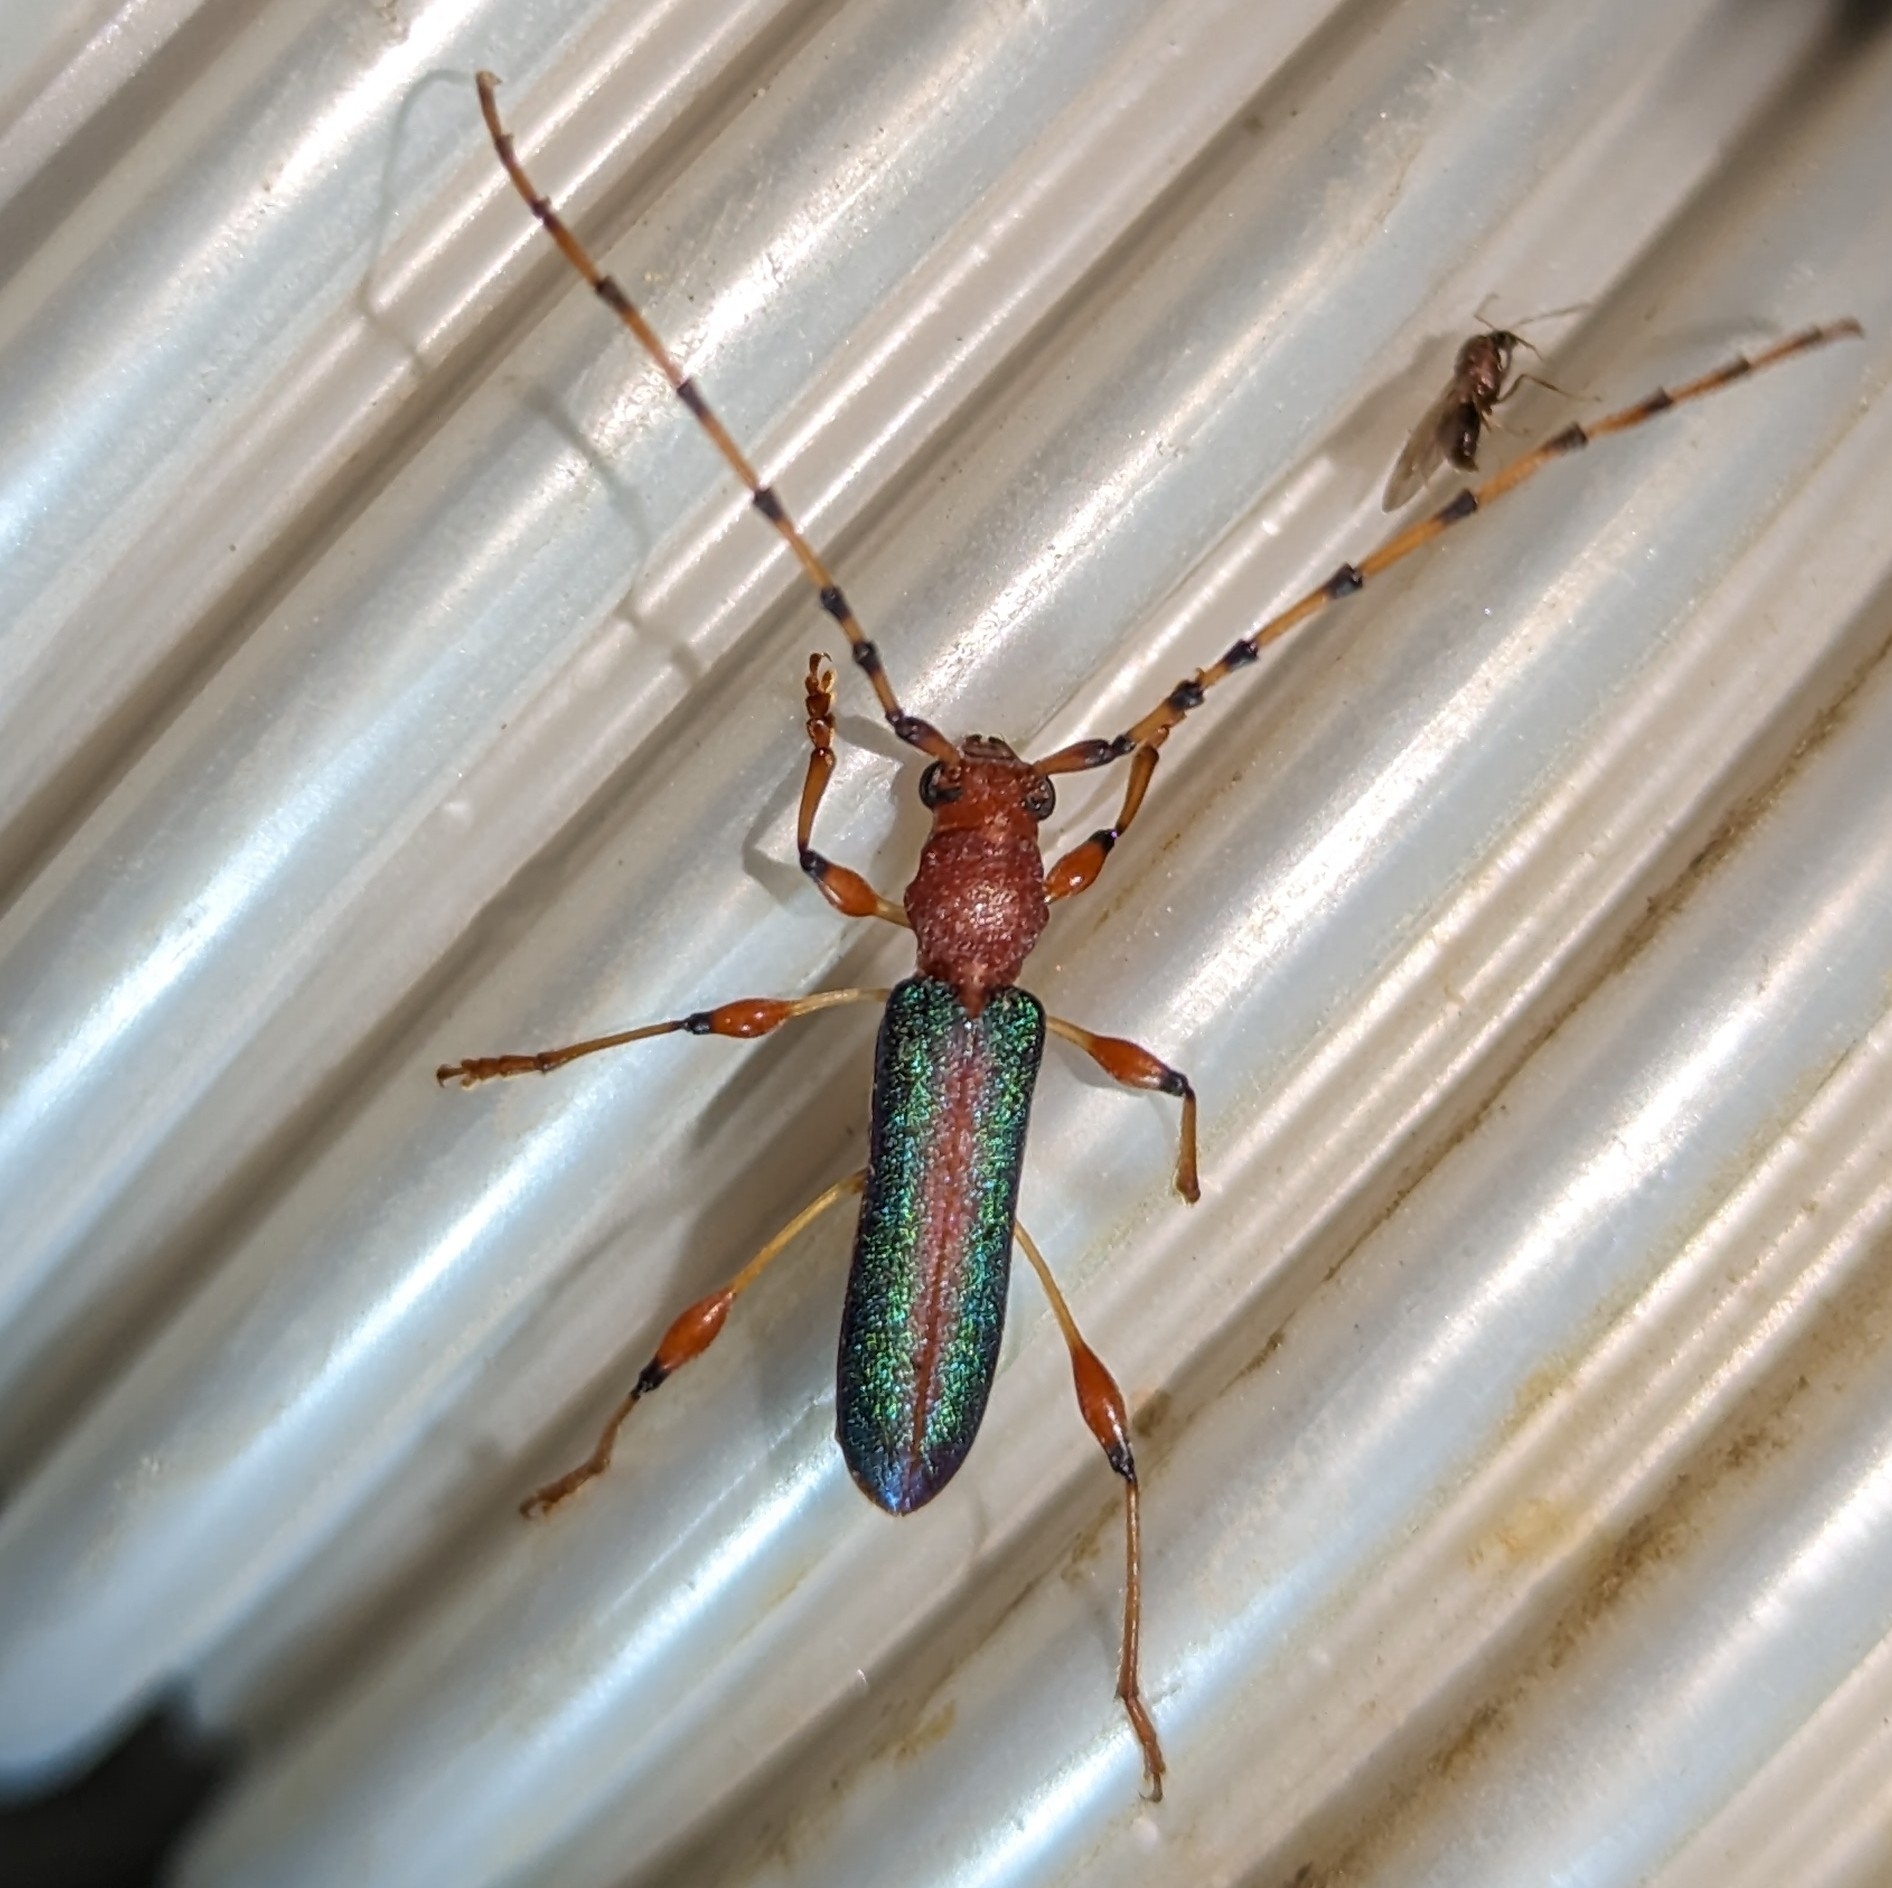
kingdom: Animalia
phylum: Arthropoda
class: Insecta
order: Coleoptera
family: Cerambycidae
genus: Cordylomera
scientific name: Cordylomera annulicornis
